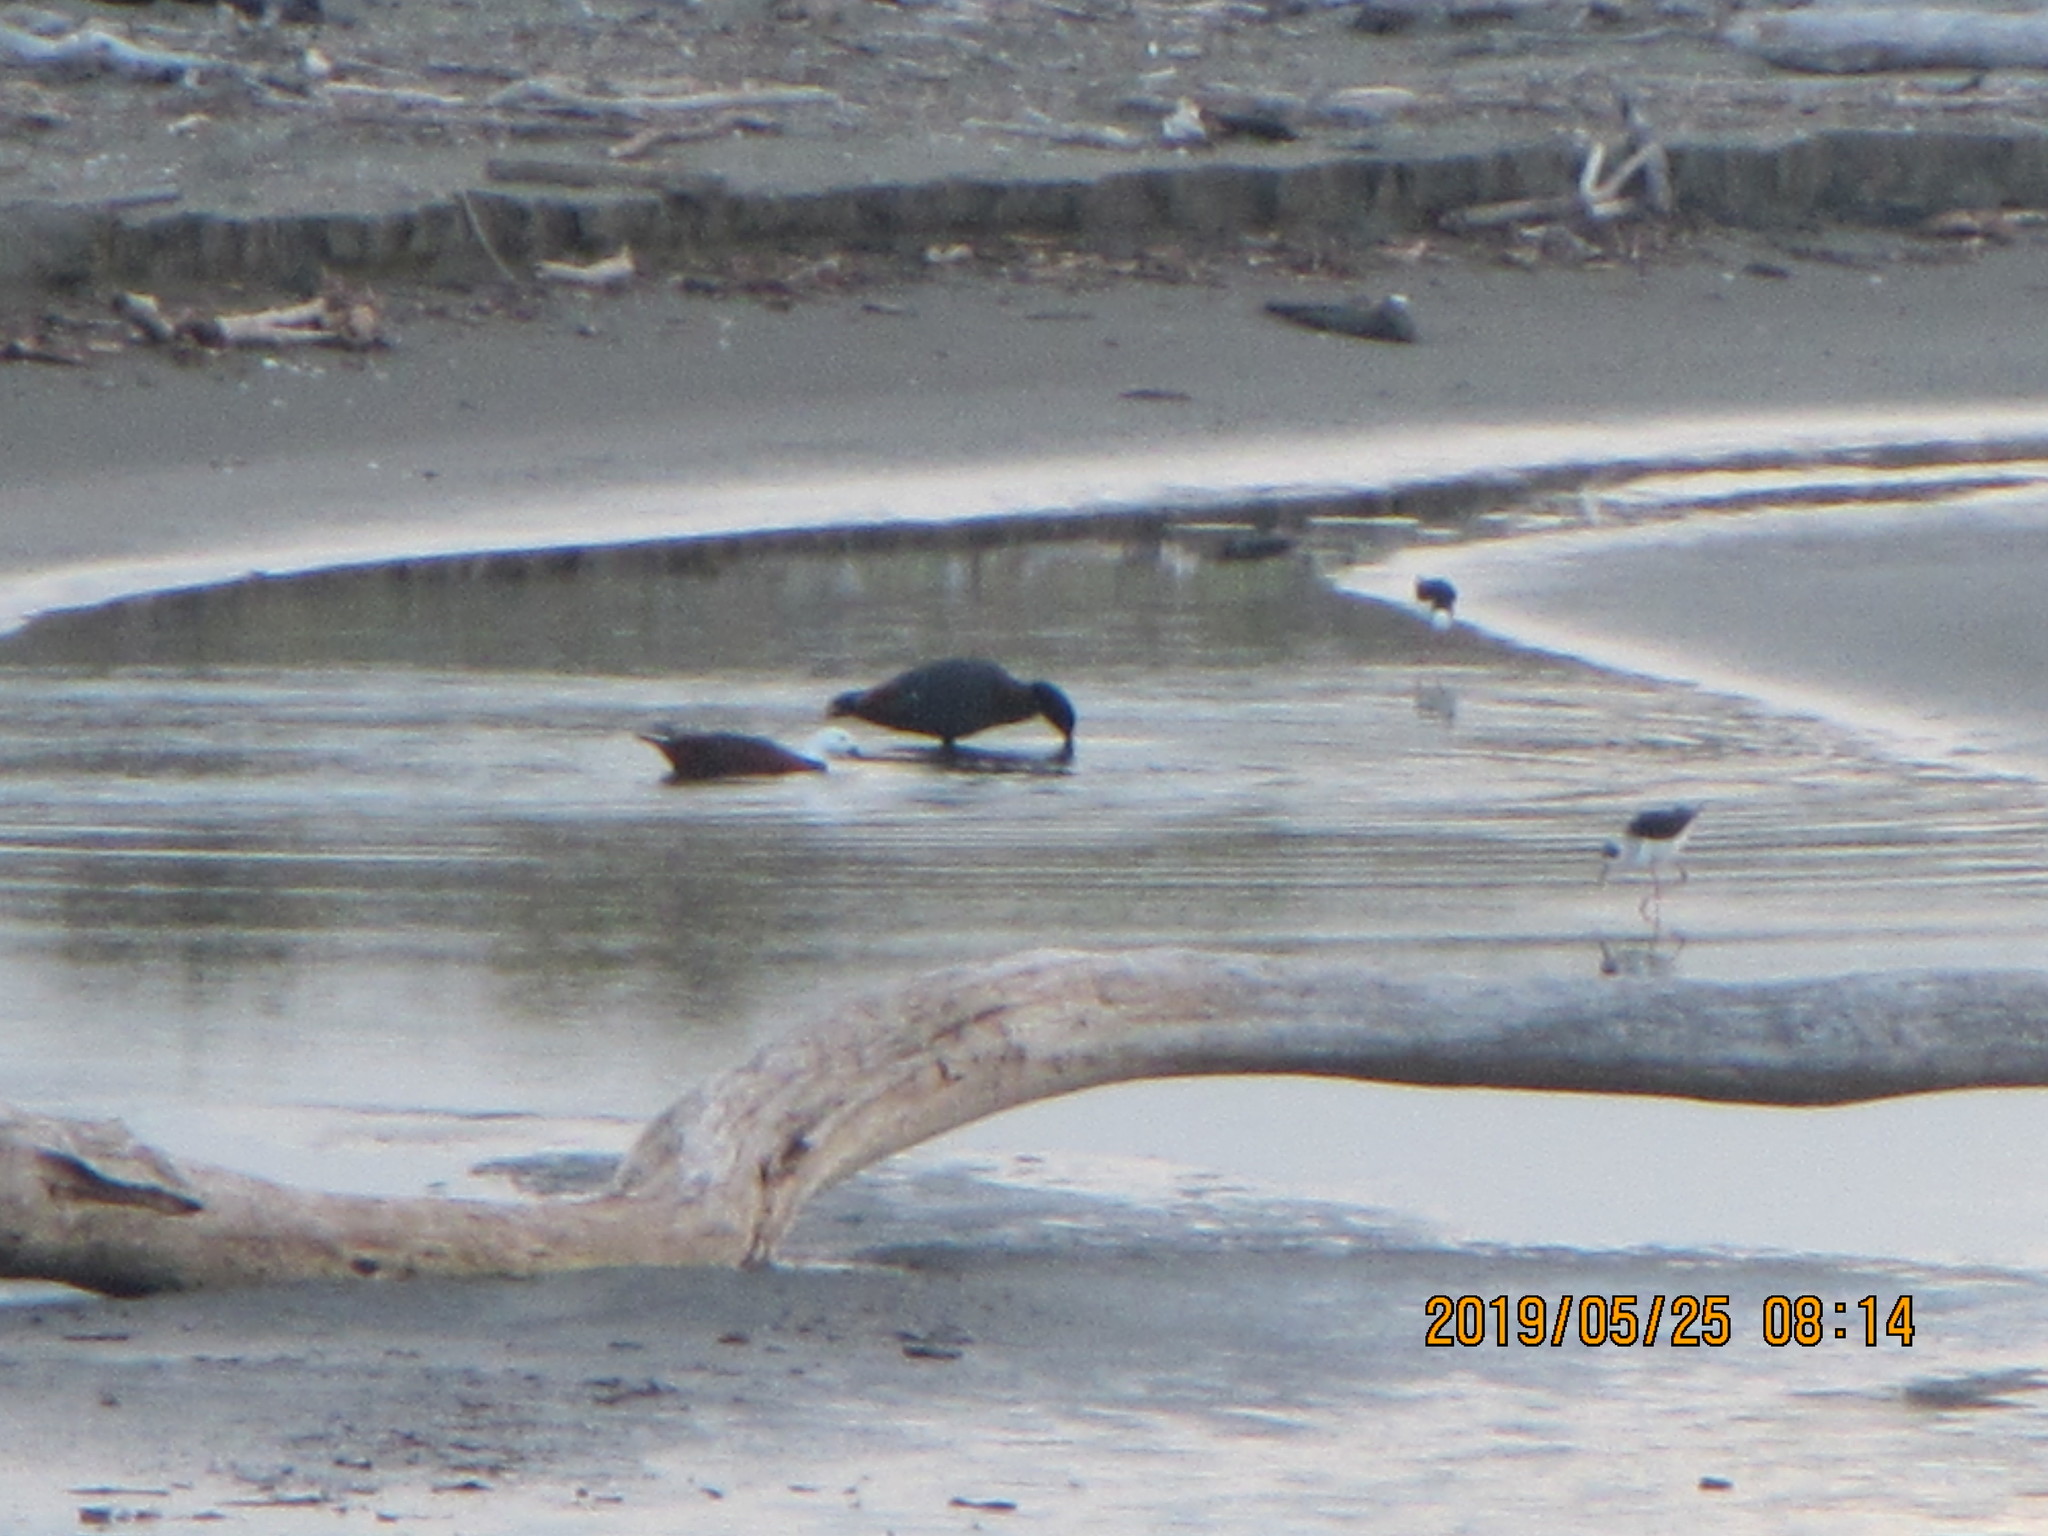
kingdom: Animalia
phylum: Chordata
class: Aves
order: Anseriformes
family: Anatidae
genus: Tadorna
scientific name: Tadorna variegata
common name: Paradise shelduck
